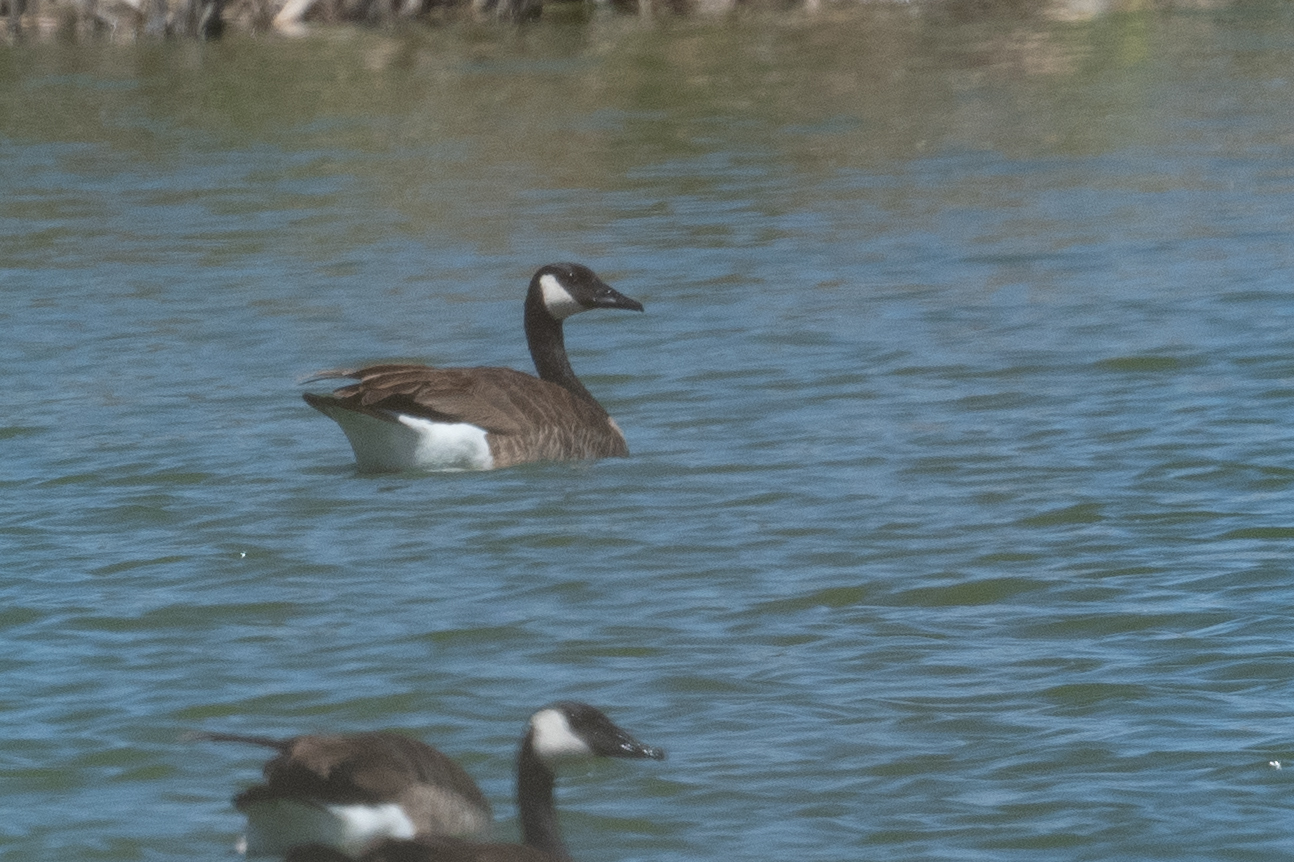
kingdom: Animalia
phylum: Chordata
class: Aves
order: Anseriformes
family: Anatidae
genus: Branta
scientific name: Branta canadensis
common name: Canada goose
